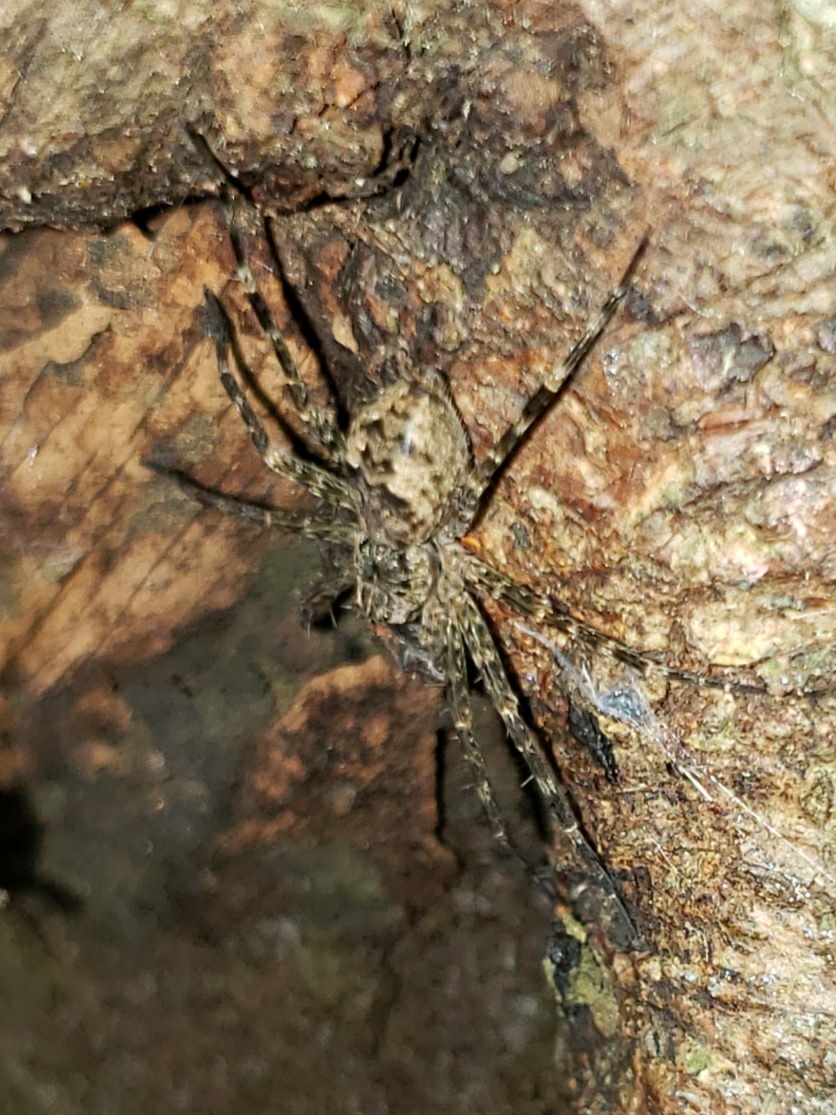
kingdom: Animalia
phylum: Arthropoda
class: Arachnida
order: Araneae
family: Pisauridae
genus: Dolomedes
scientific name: Dolomedes tenebrosus
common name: Dark fishing spider
